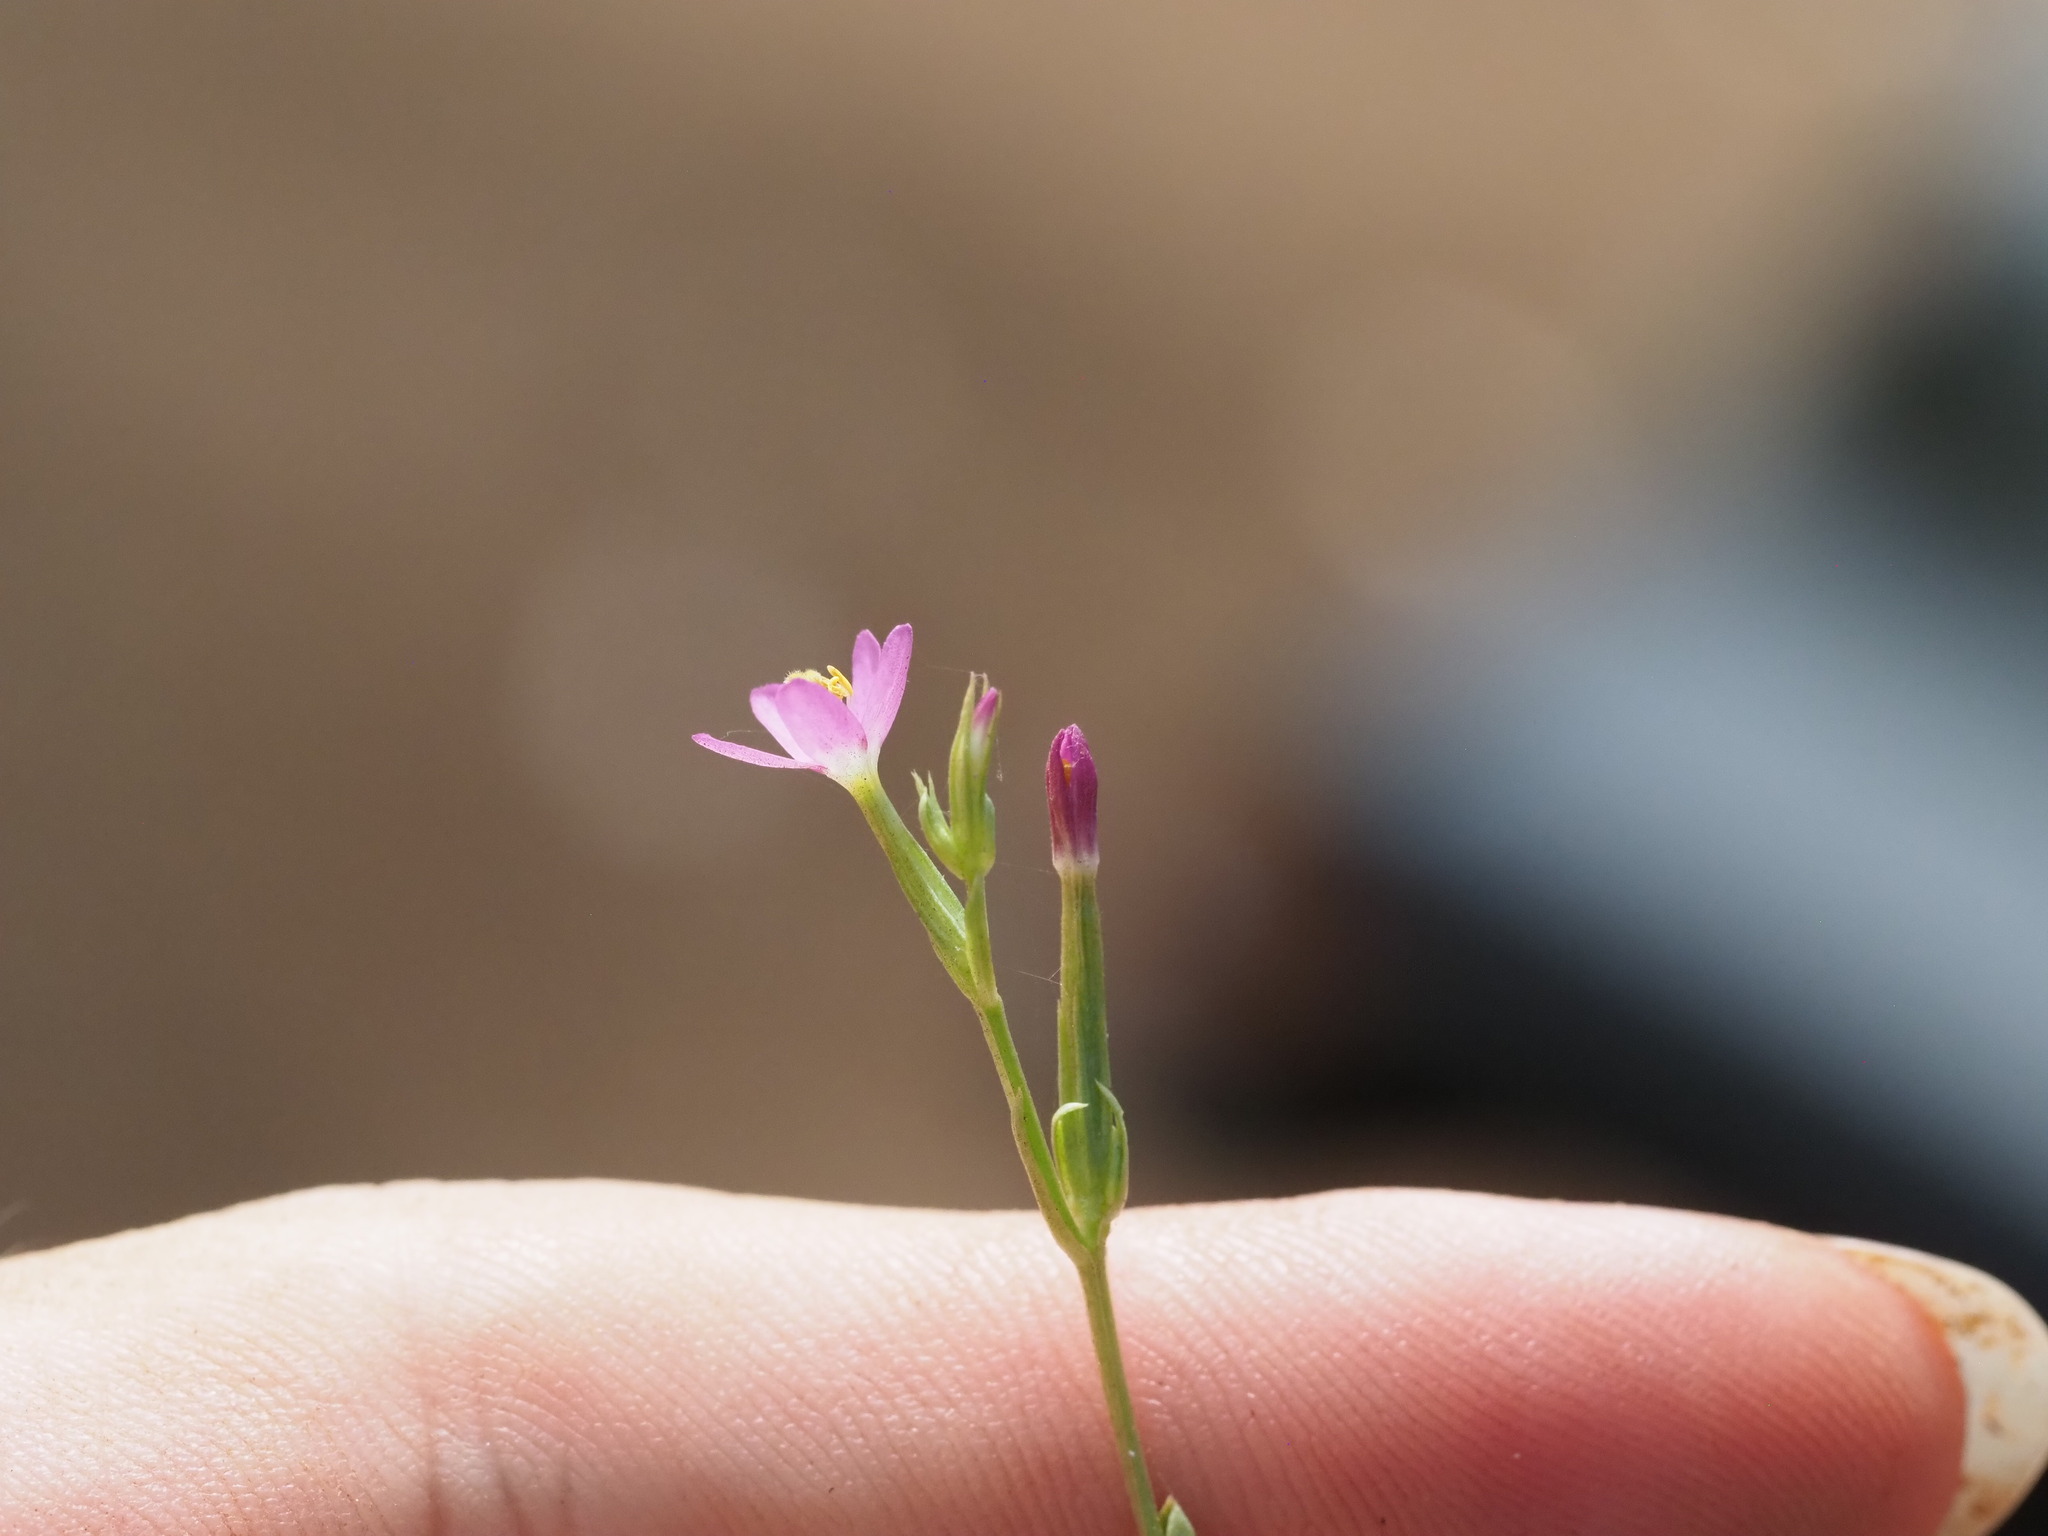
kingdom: Plantae
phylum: Tracheophyta
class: Magnoliopsida
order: Gentianales
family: Gentianaceae
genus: Centaurium
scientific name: Centaurium erythraea
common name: Common centaury
